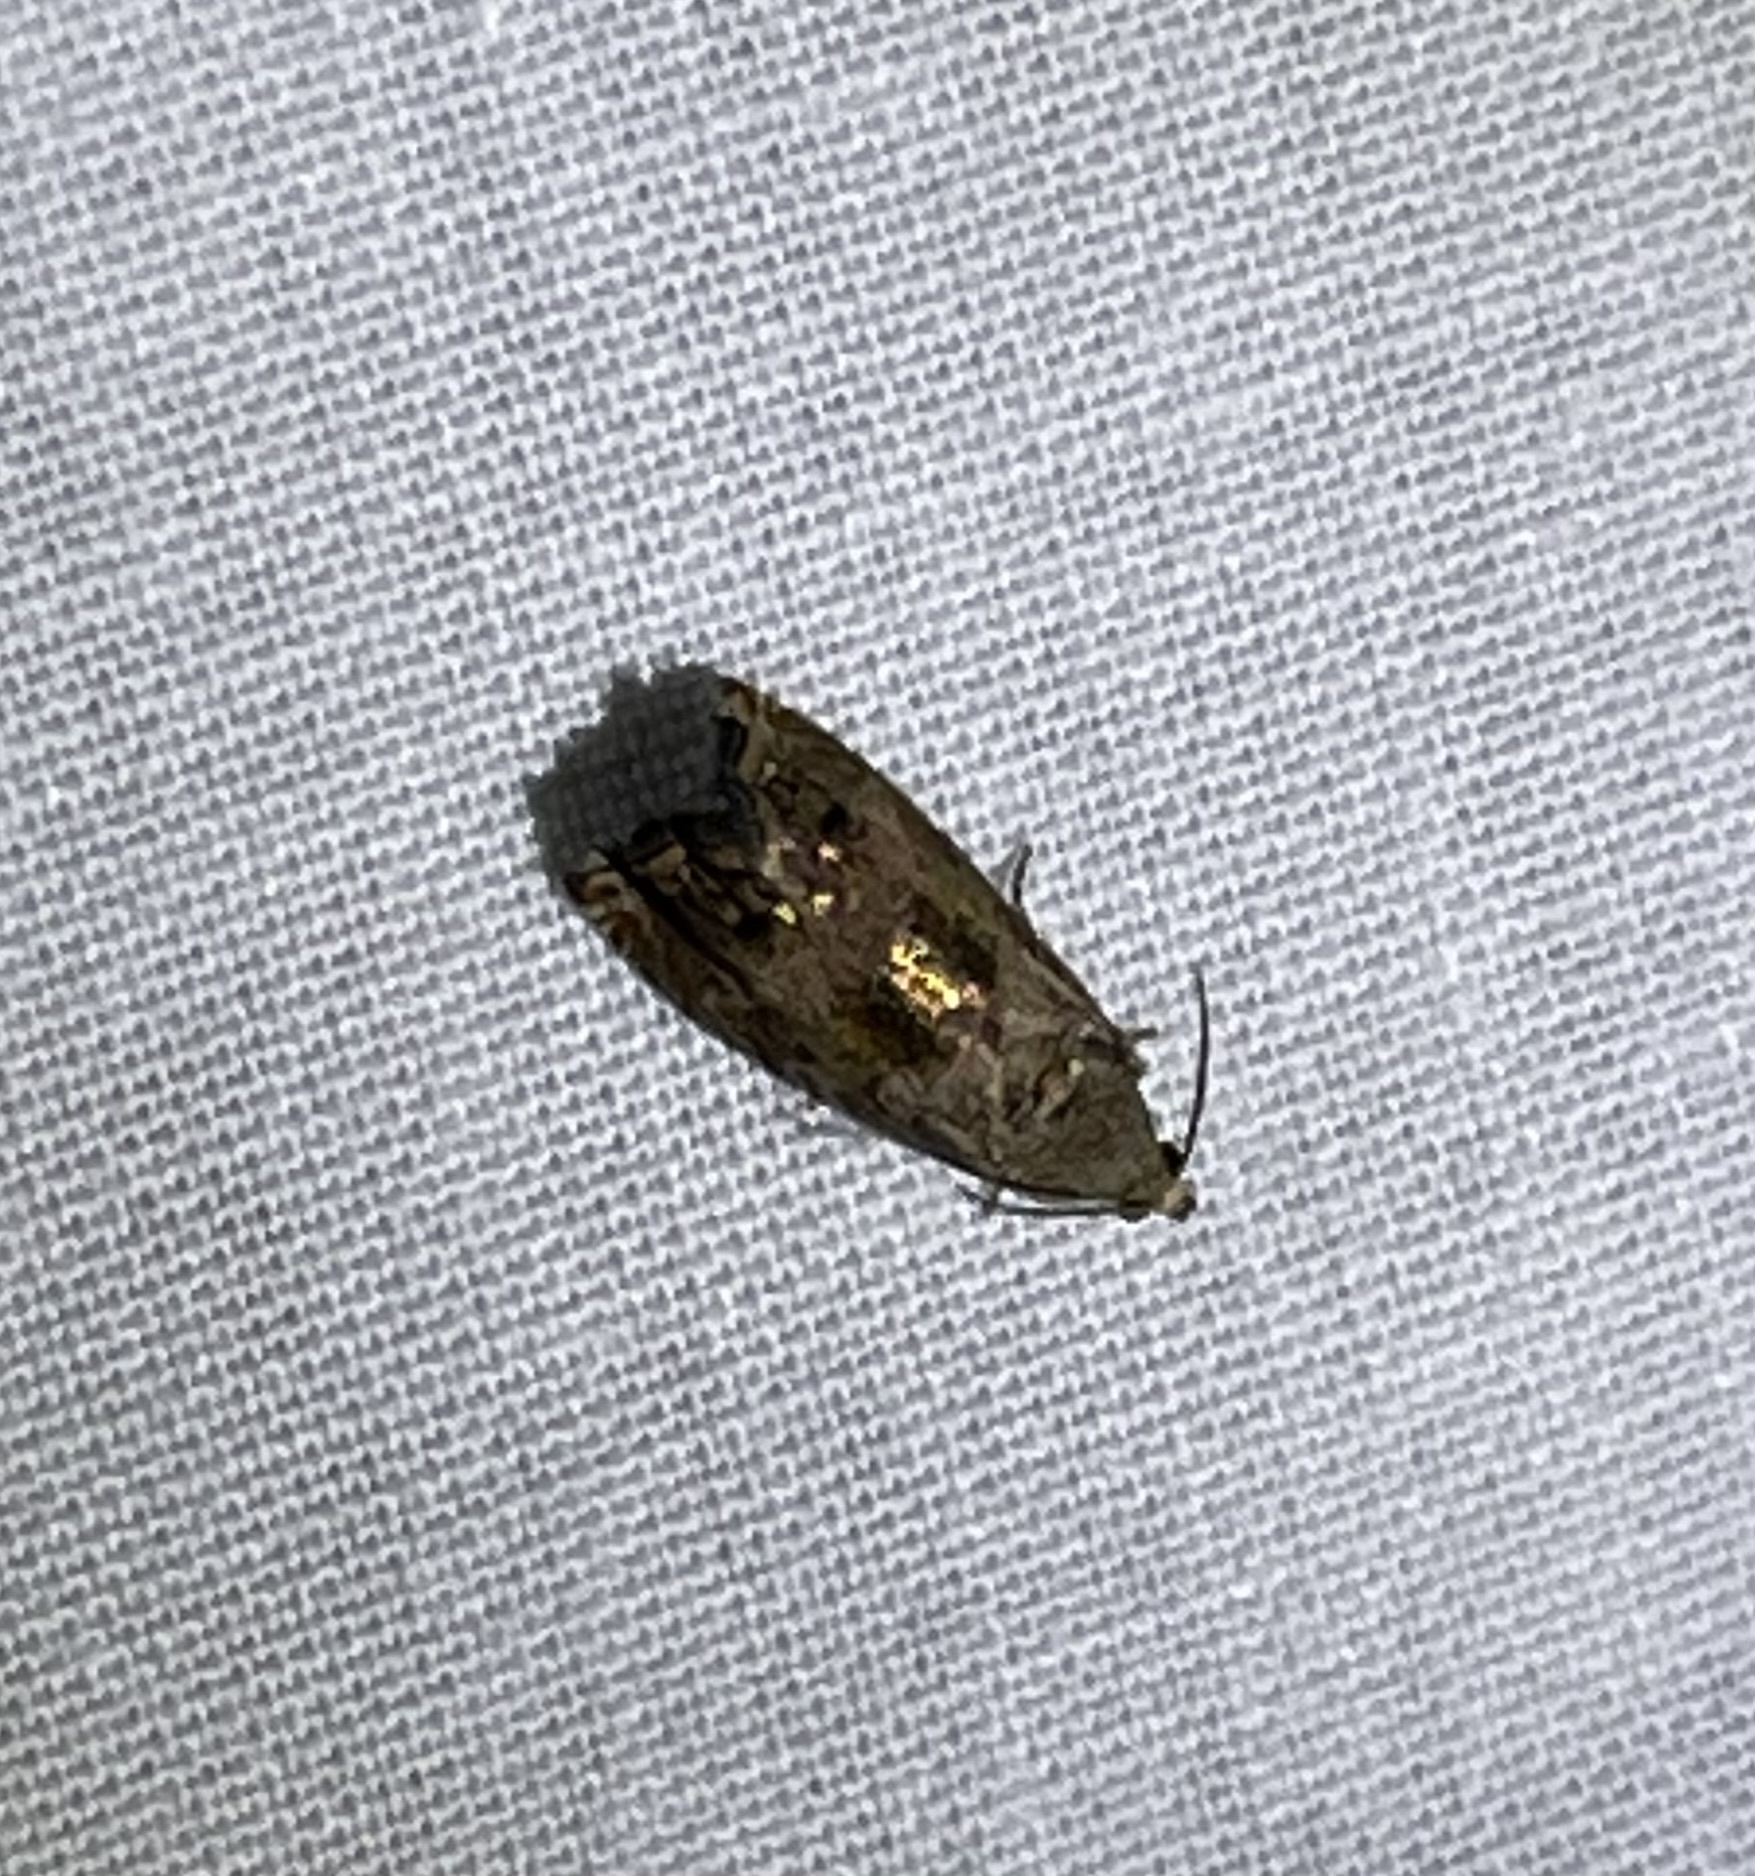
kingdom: Animalia
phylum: Arthropoda
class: Insecta
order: Lepidoptera
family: Tortricidae
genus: Cydia
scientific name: Cydia latiferreana
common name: Filbertworm moth
